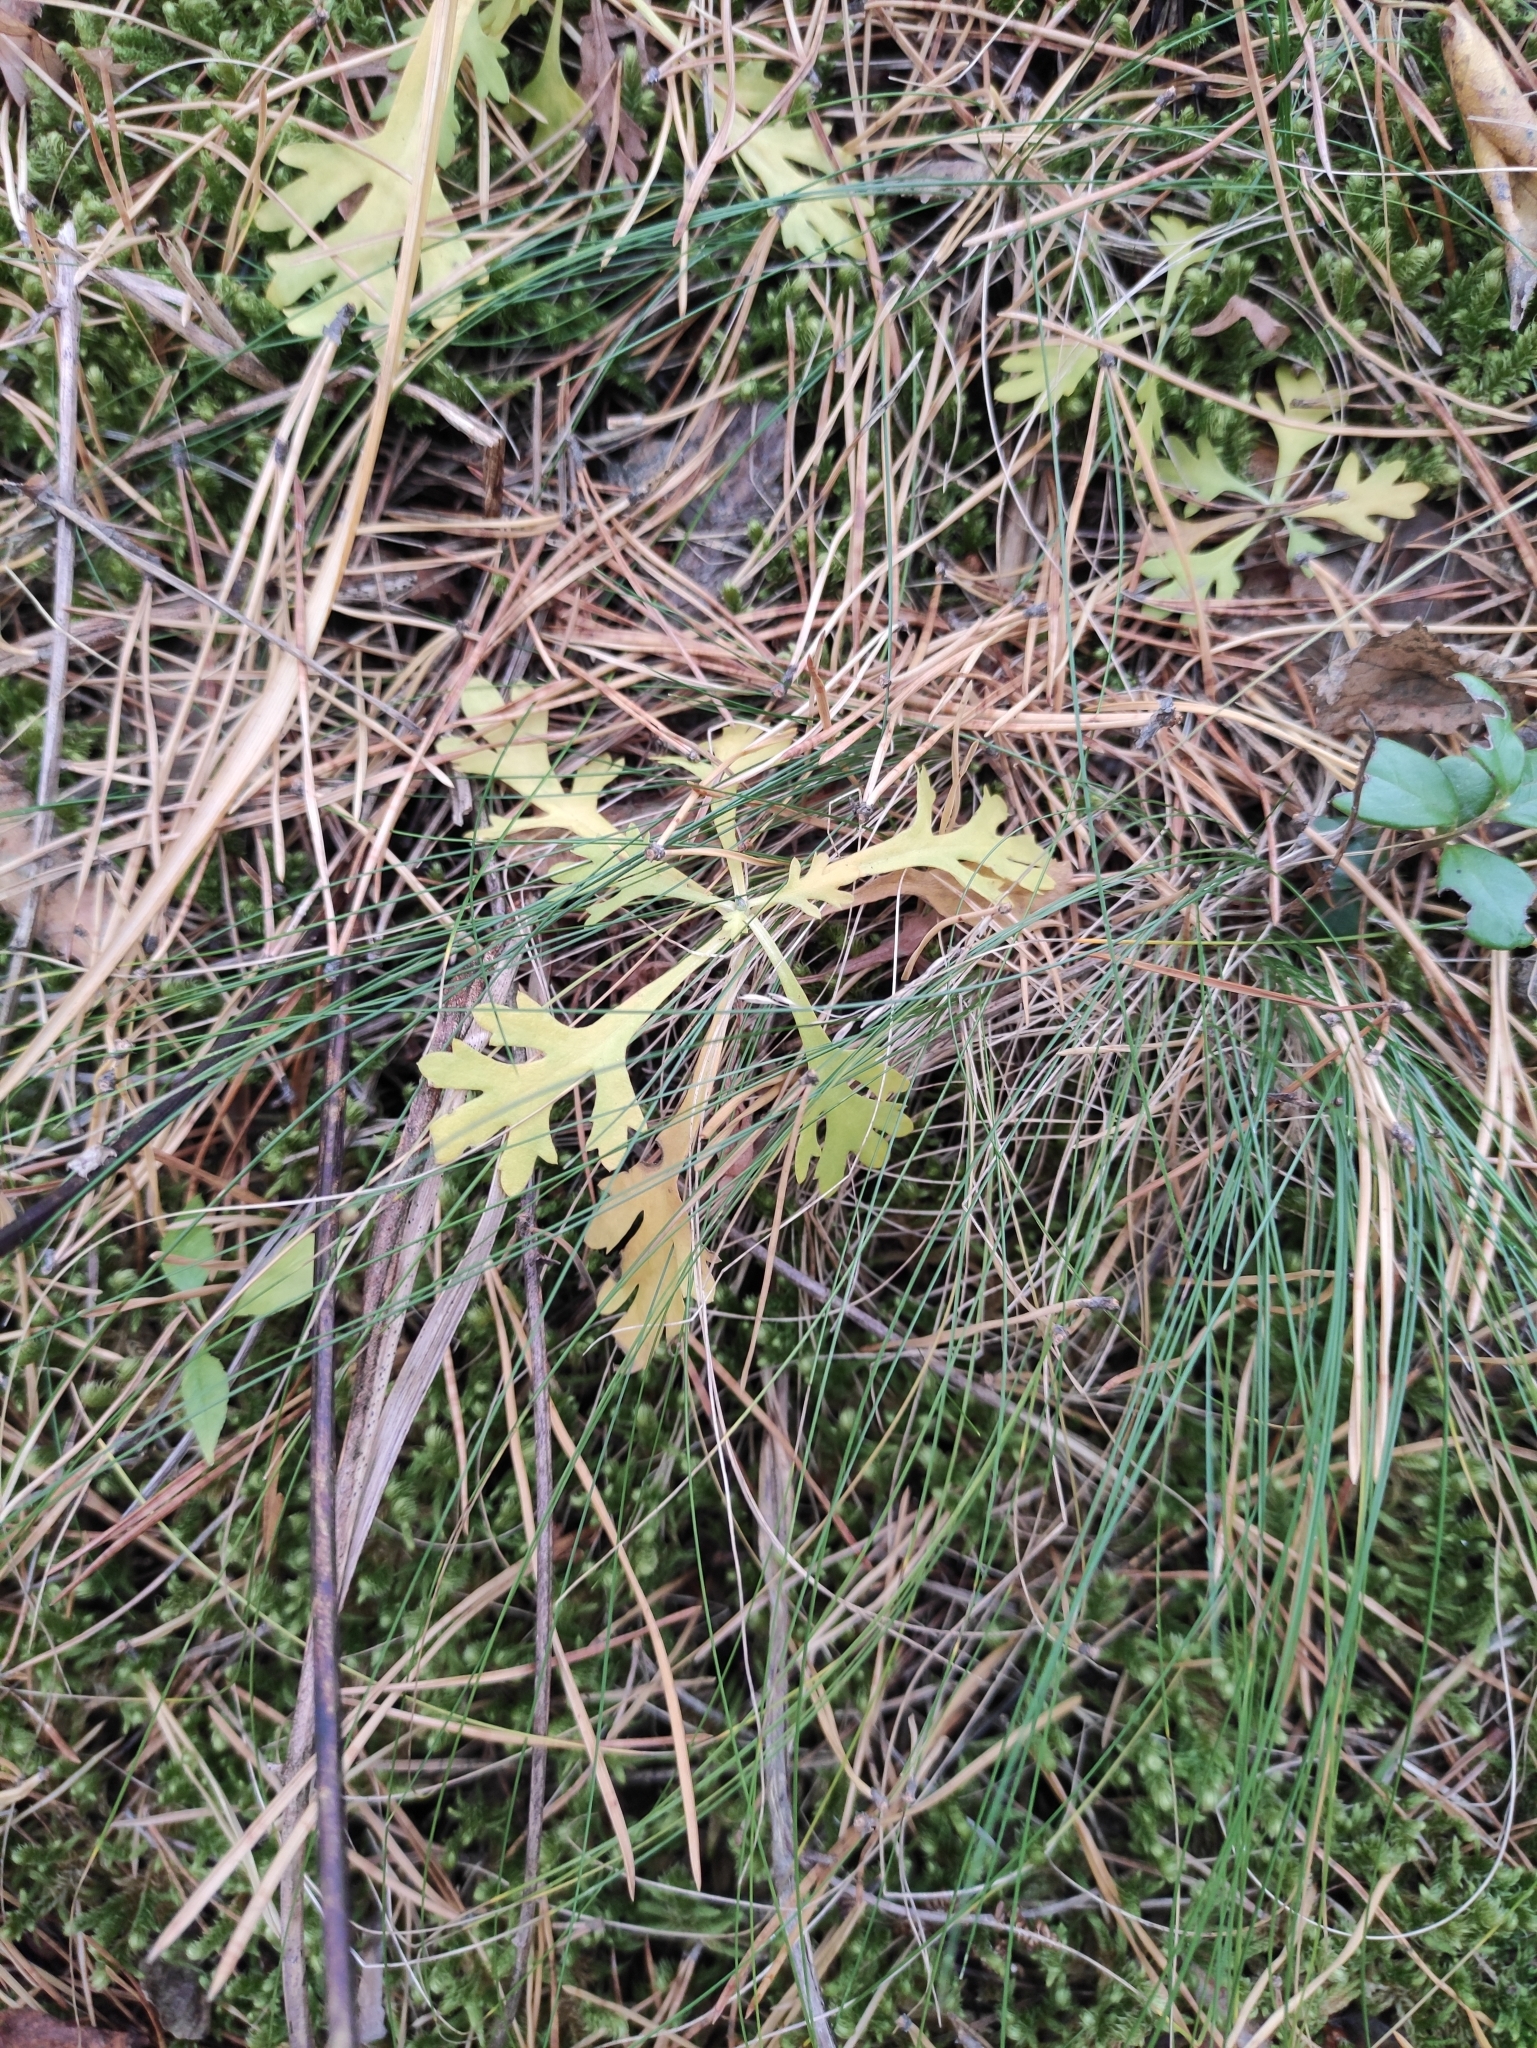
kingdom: Plantae
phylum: Tracheophyta
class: Magnoliopsida
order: Asterales
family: Asteraceae
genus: Chrysanthemum
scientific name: Chrysanthemum zawadzkii
